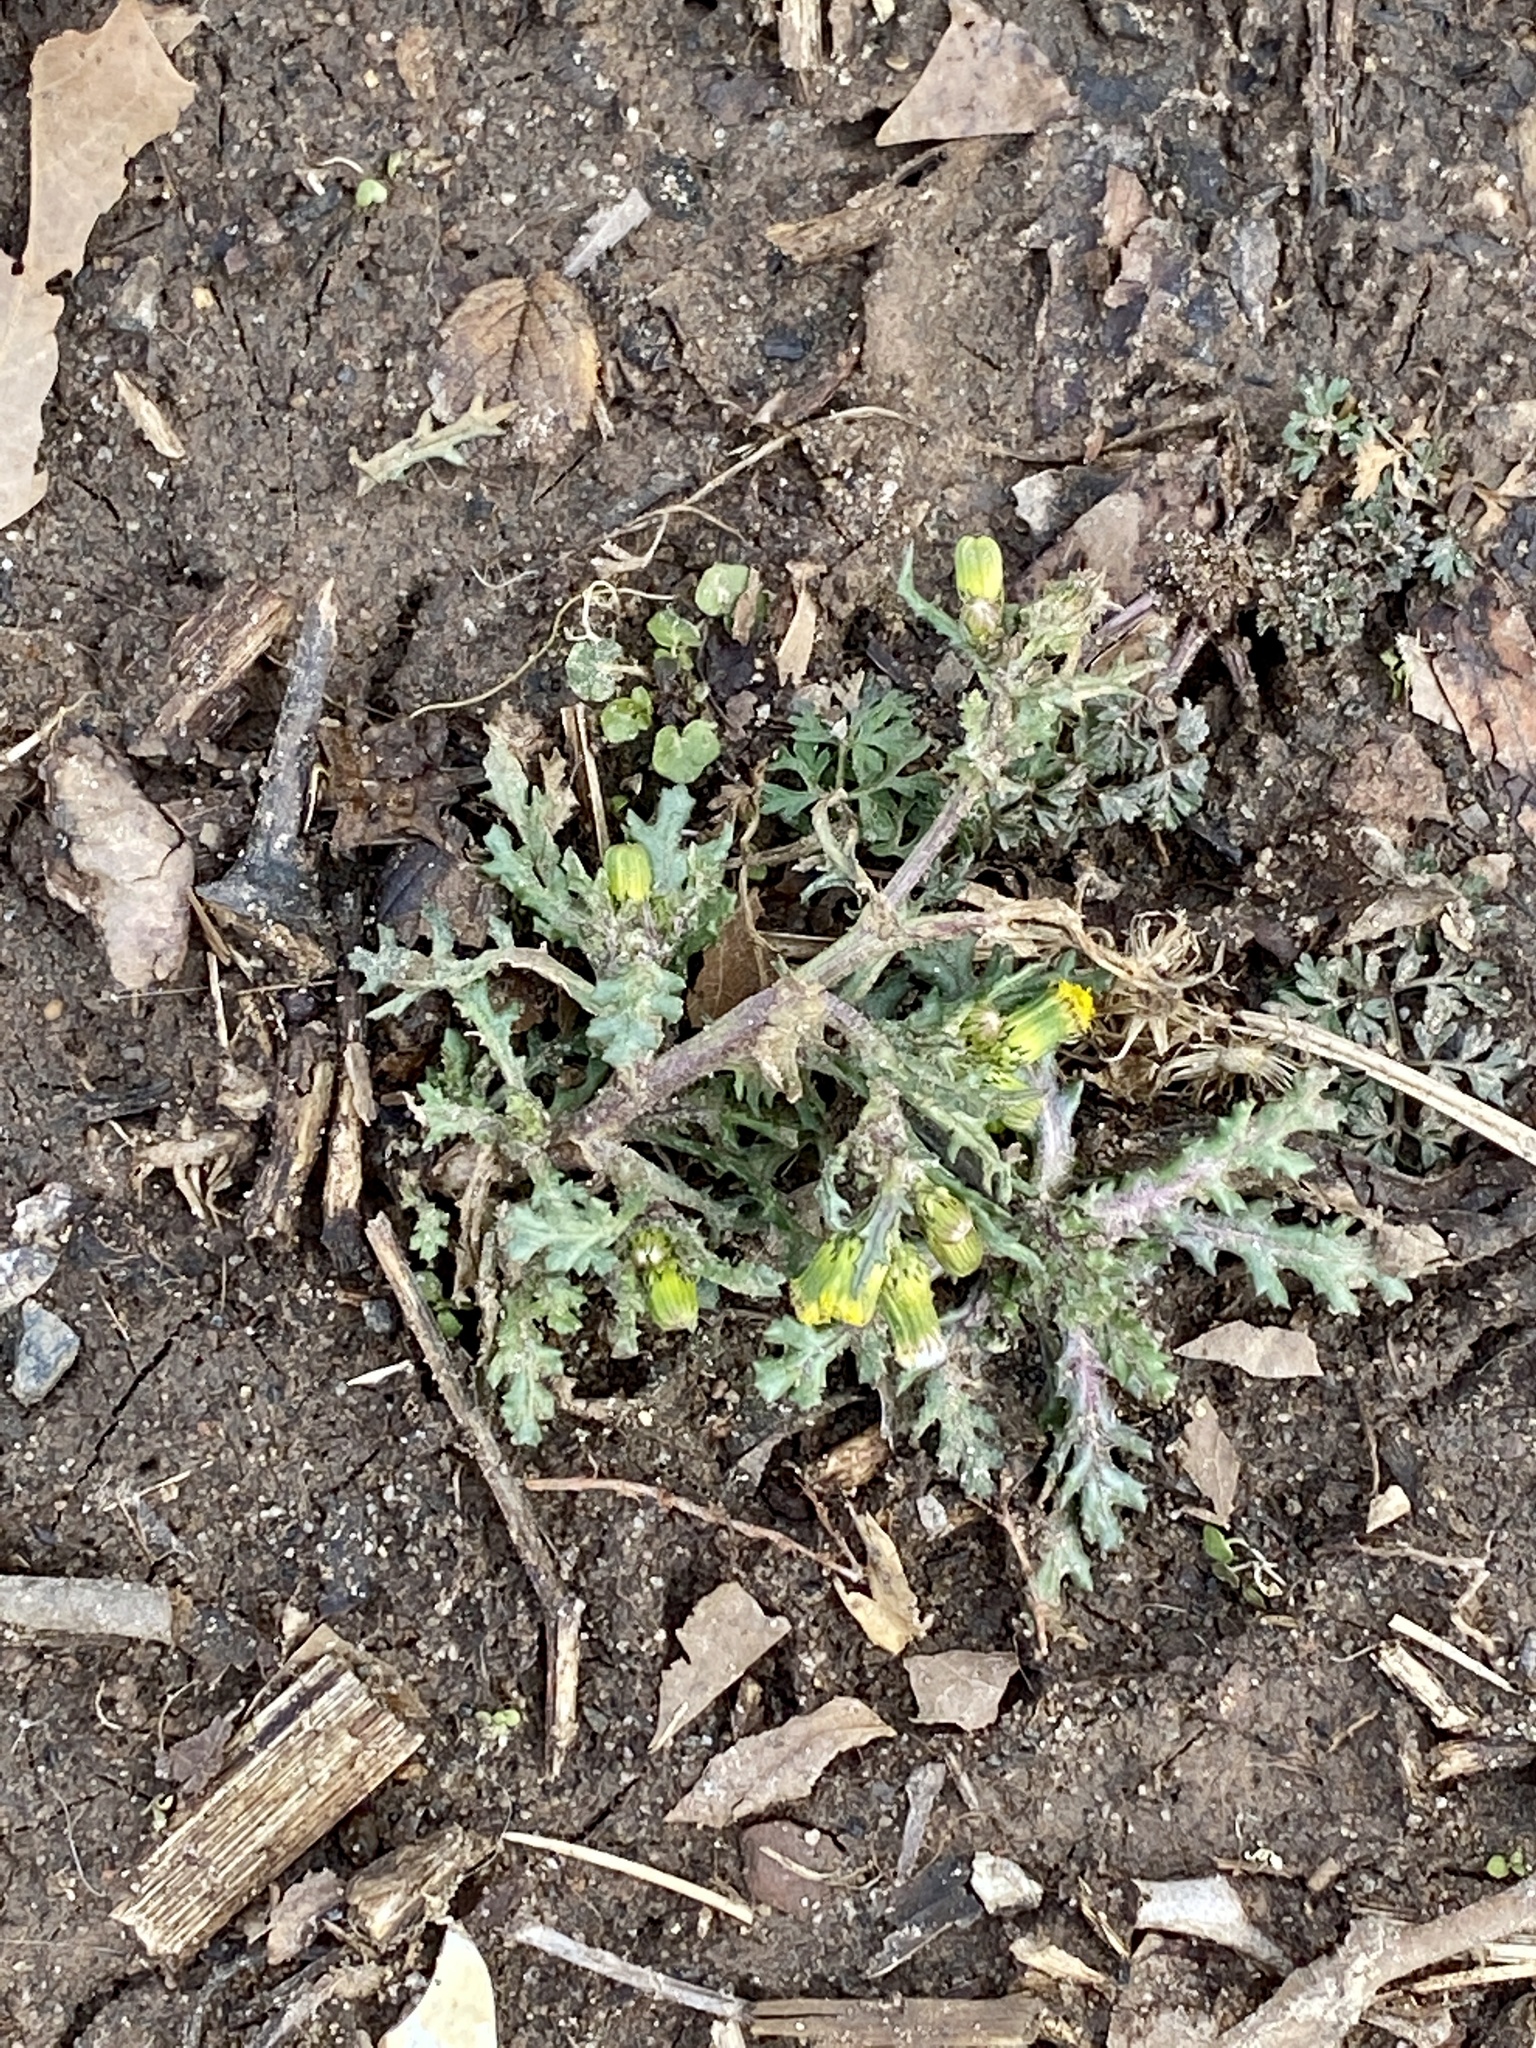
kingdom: Plantae
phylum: Tracheophyta
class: Magnoliopsida
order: Asterales
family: Asteraceae
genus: Senecio
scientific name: Senecio vulgaris
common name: Old-man-in-the-spring
